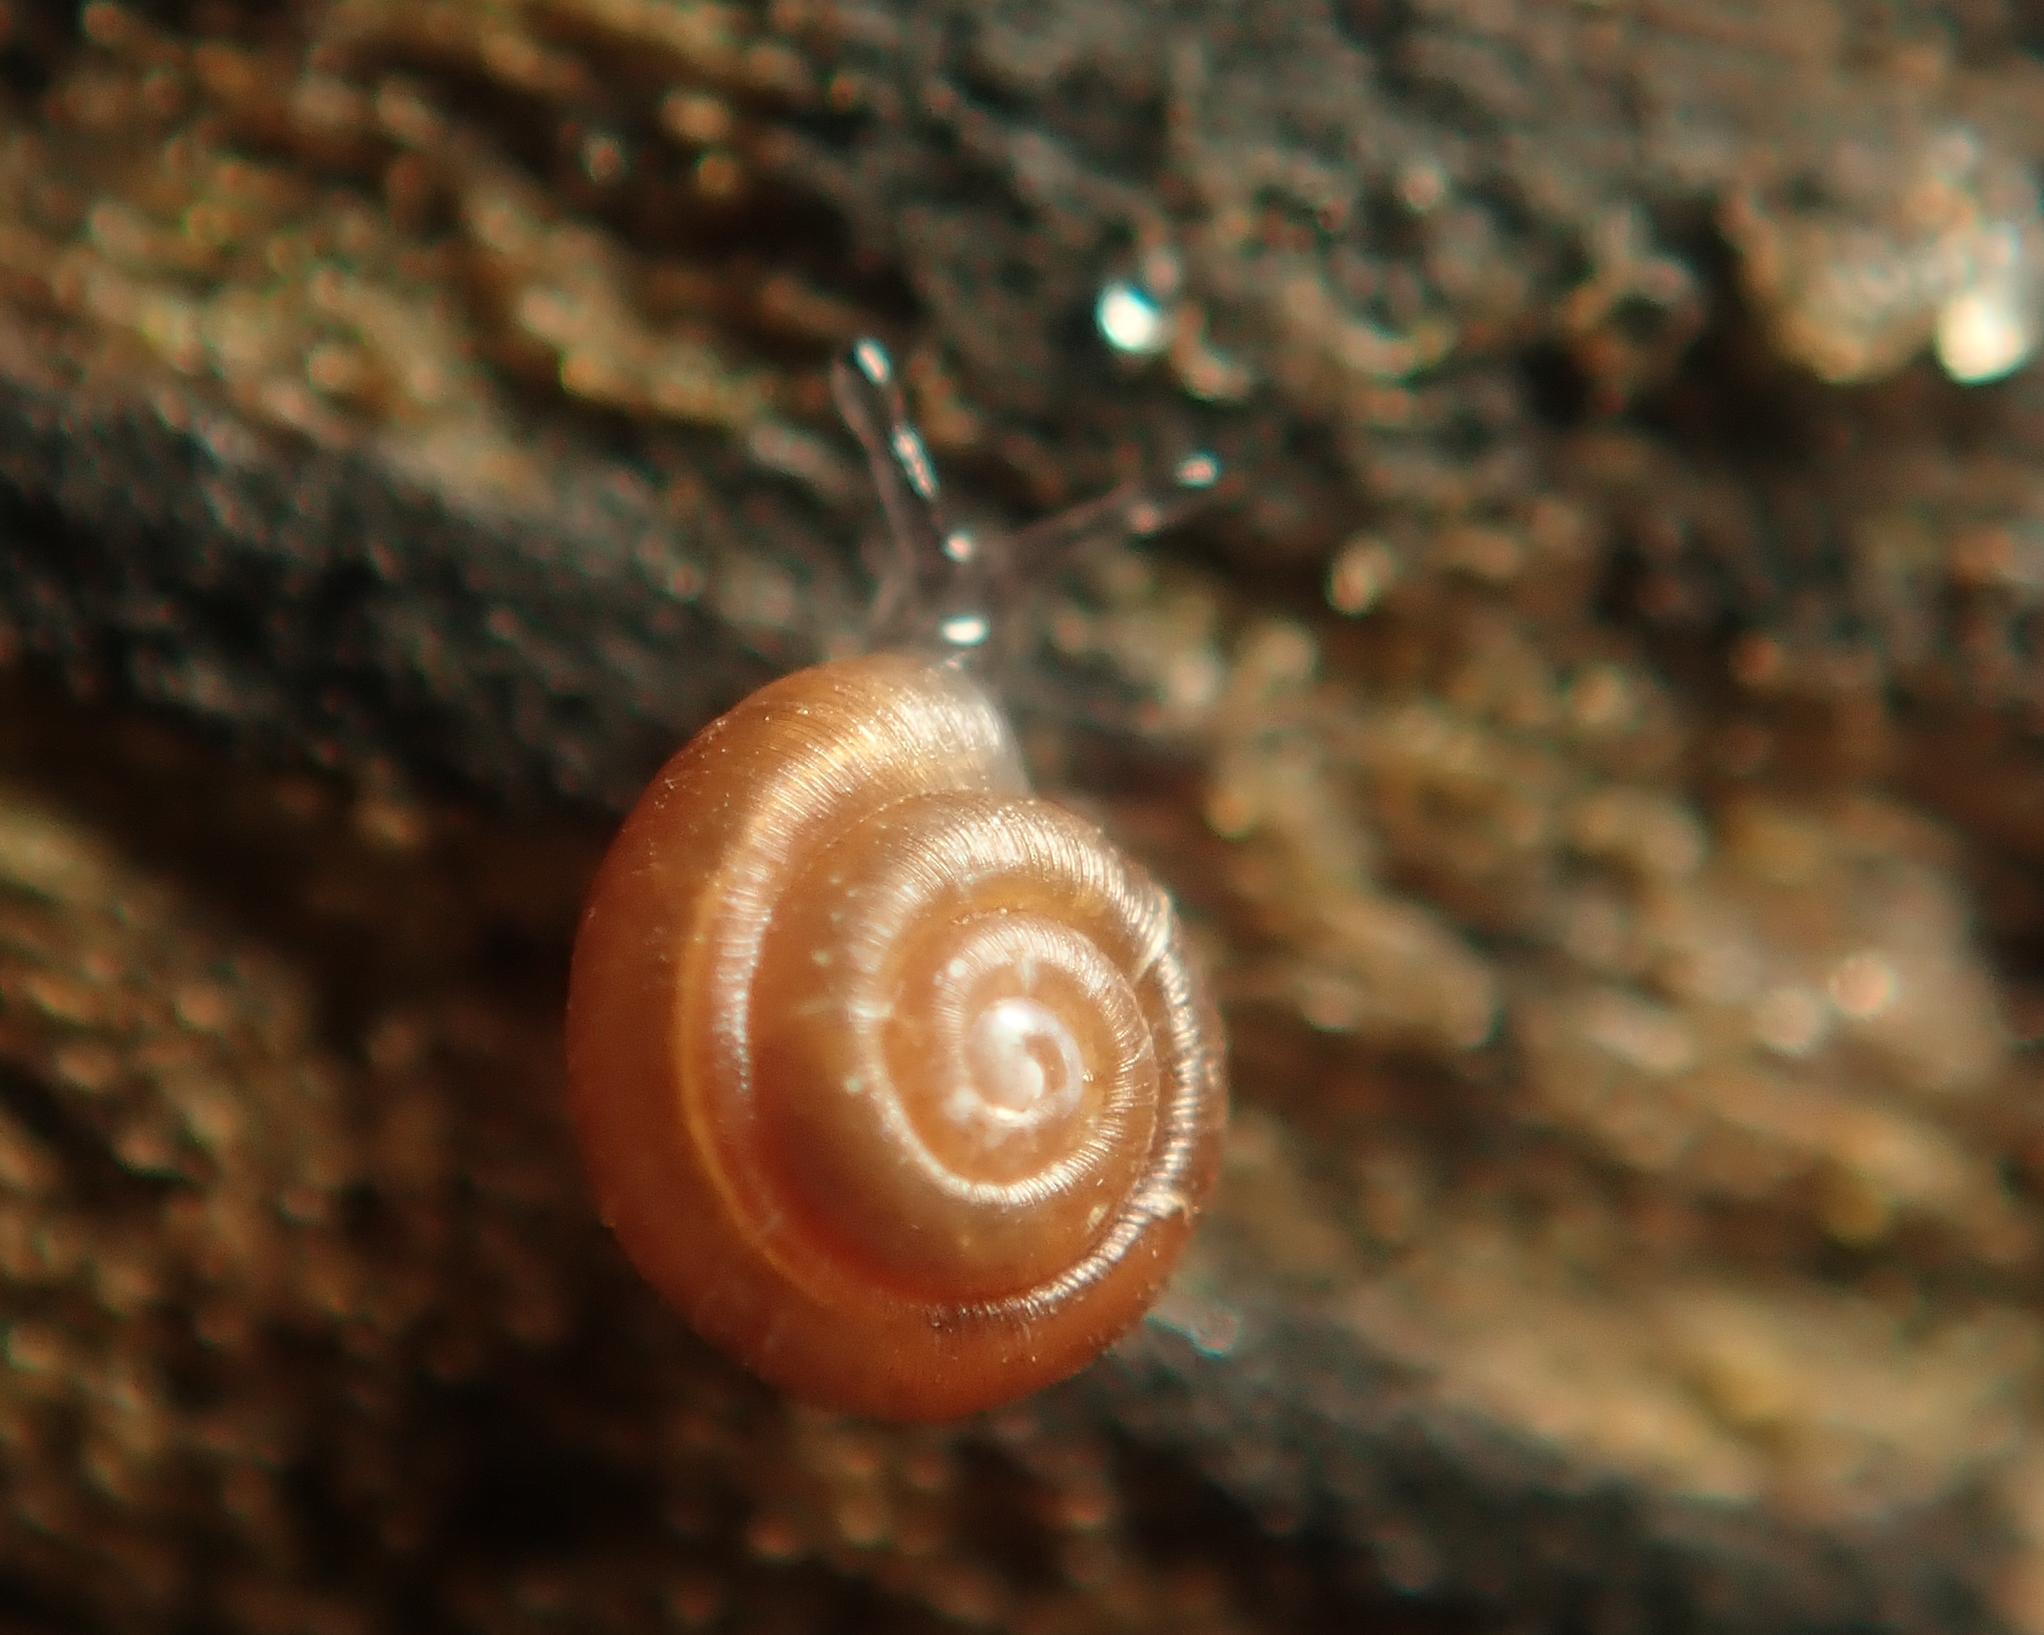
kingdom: Animalia
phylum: Mollusca
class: Gastropoda
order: Stylommatophora
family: Punctidae
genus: Punctum
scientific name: Punctum pygmaeum
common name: Dwarf snail
